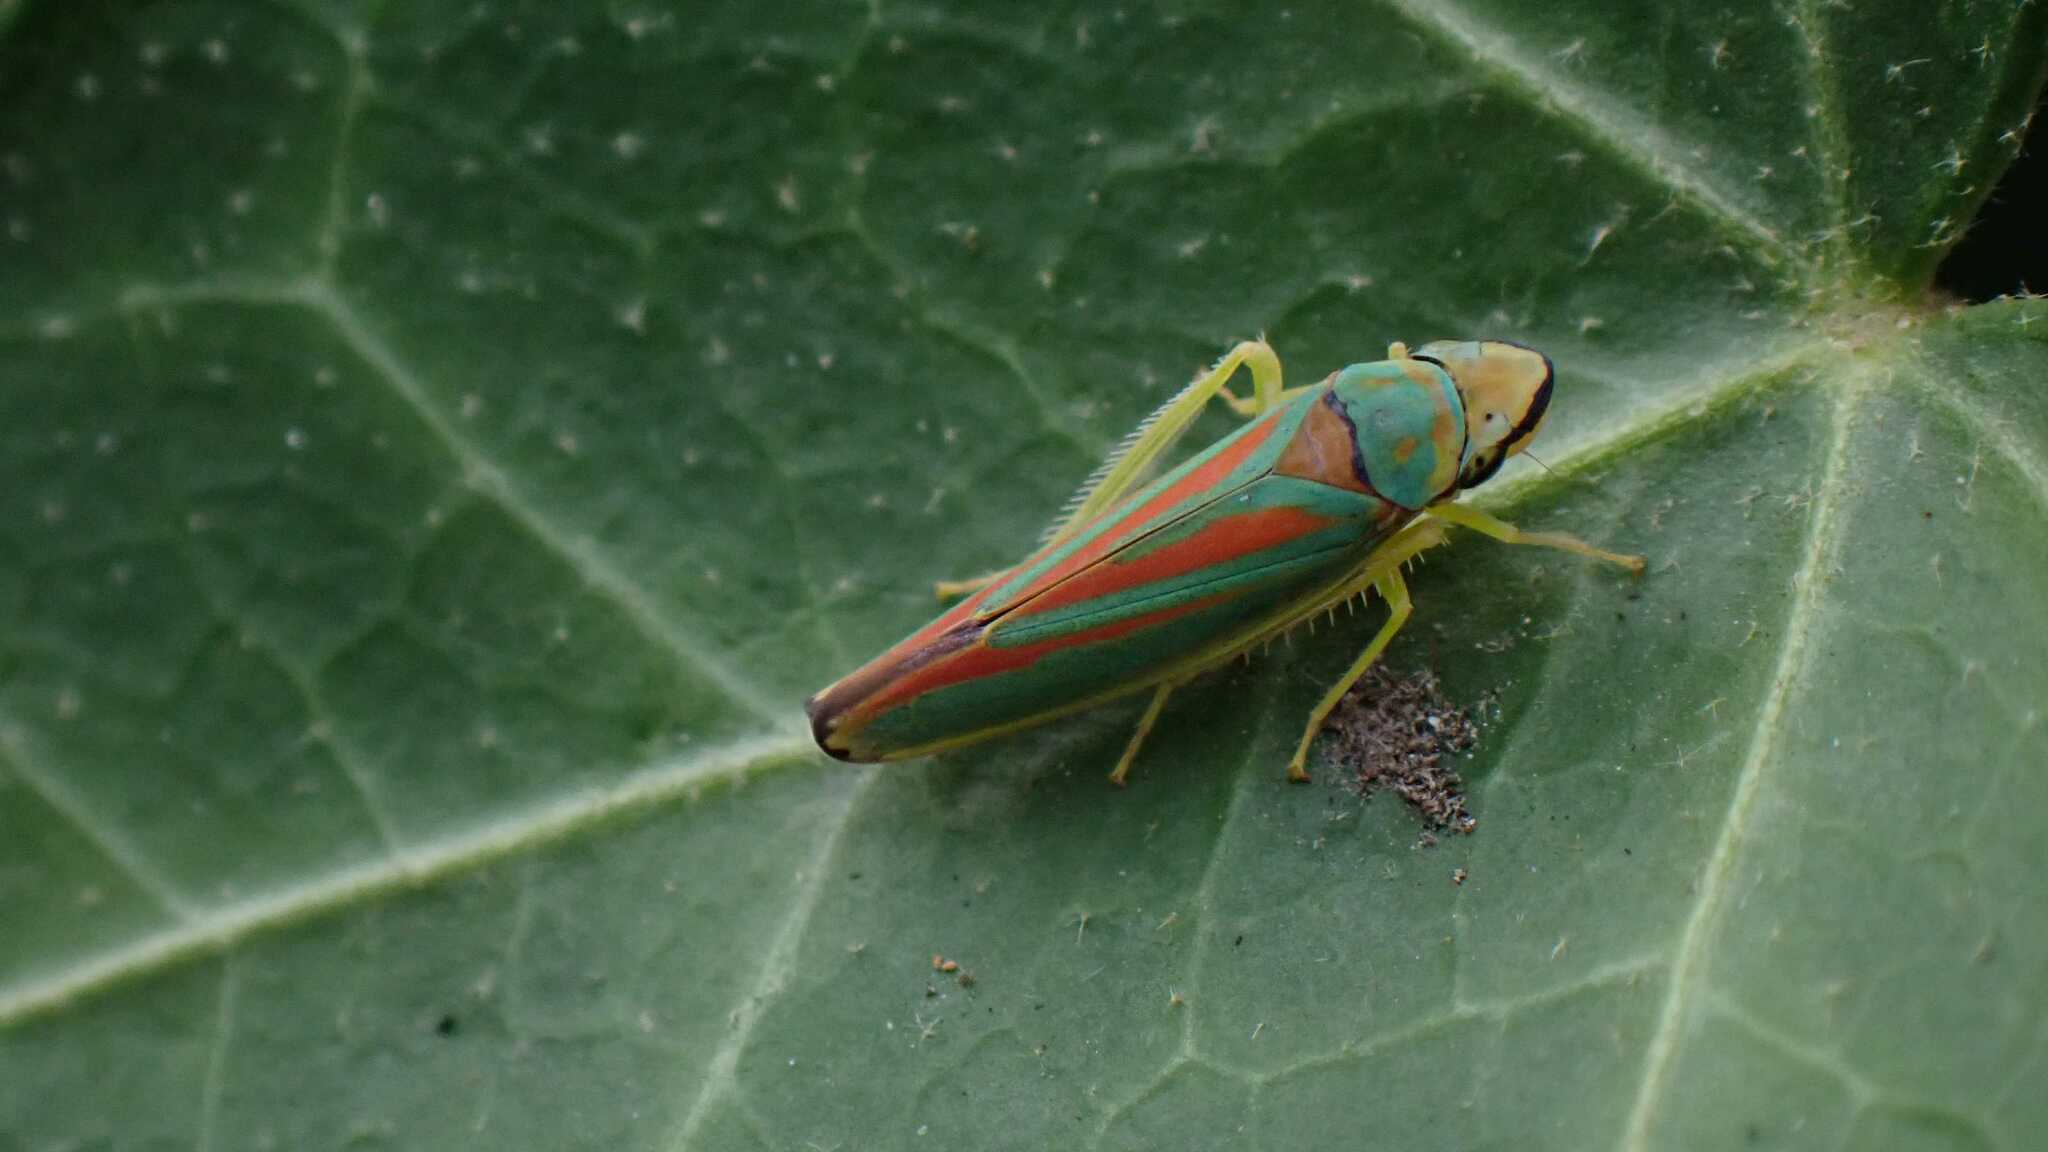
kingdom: Animalia
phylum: Arthropoda
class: Insecta
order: Hemiptera
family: Cicadellidae
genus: Graphocephala
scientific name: Graphocephala fennahi
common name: Rhododendron leafhopper
